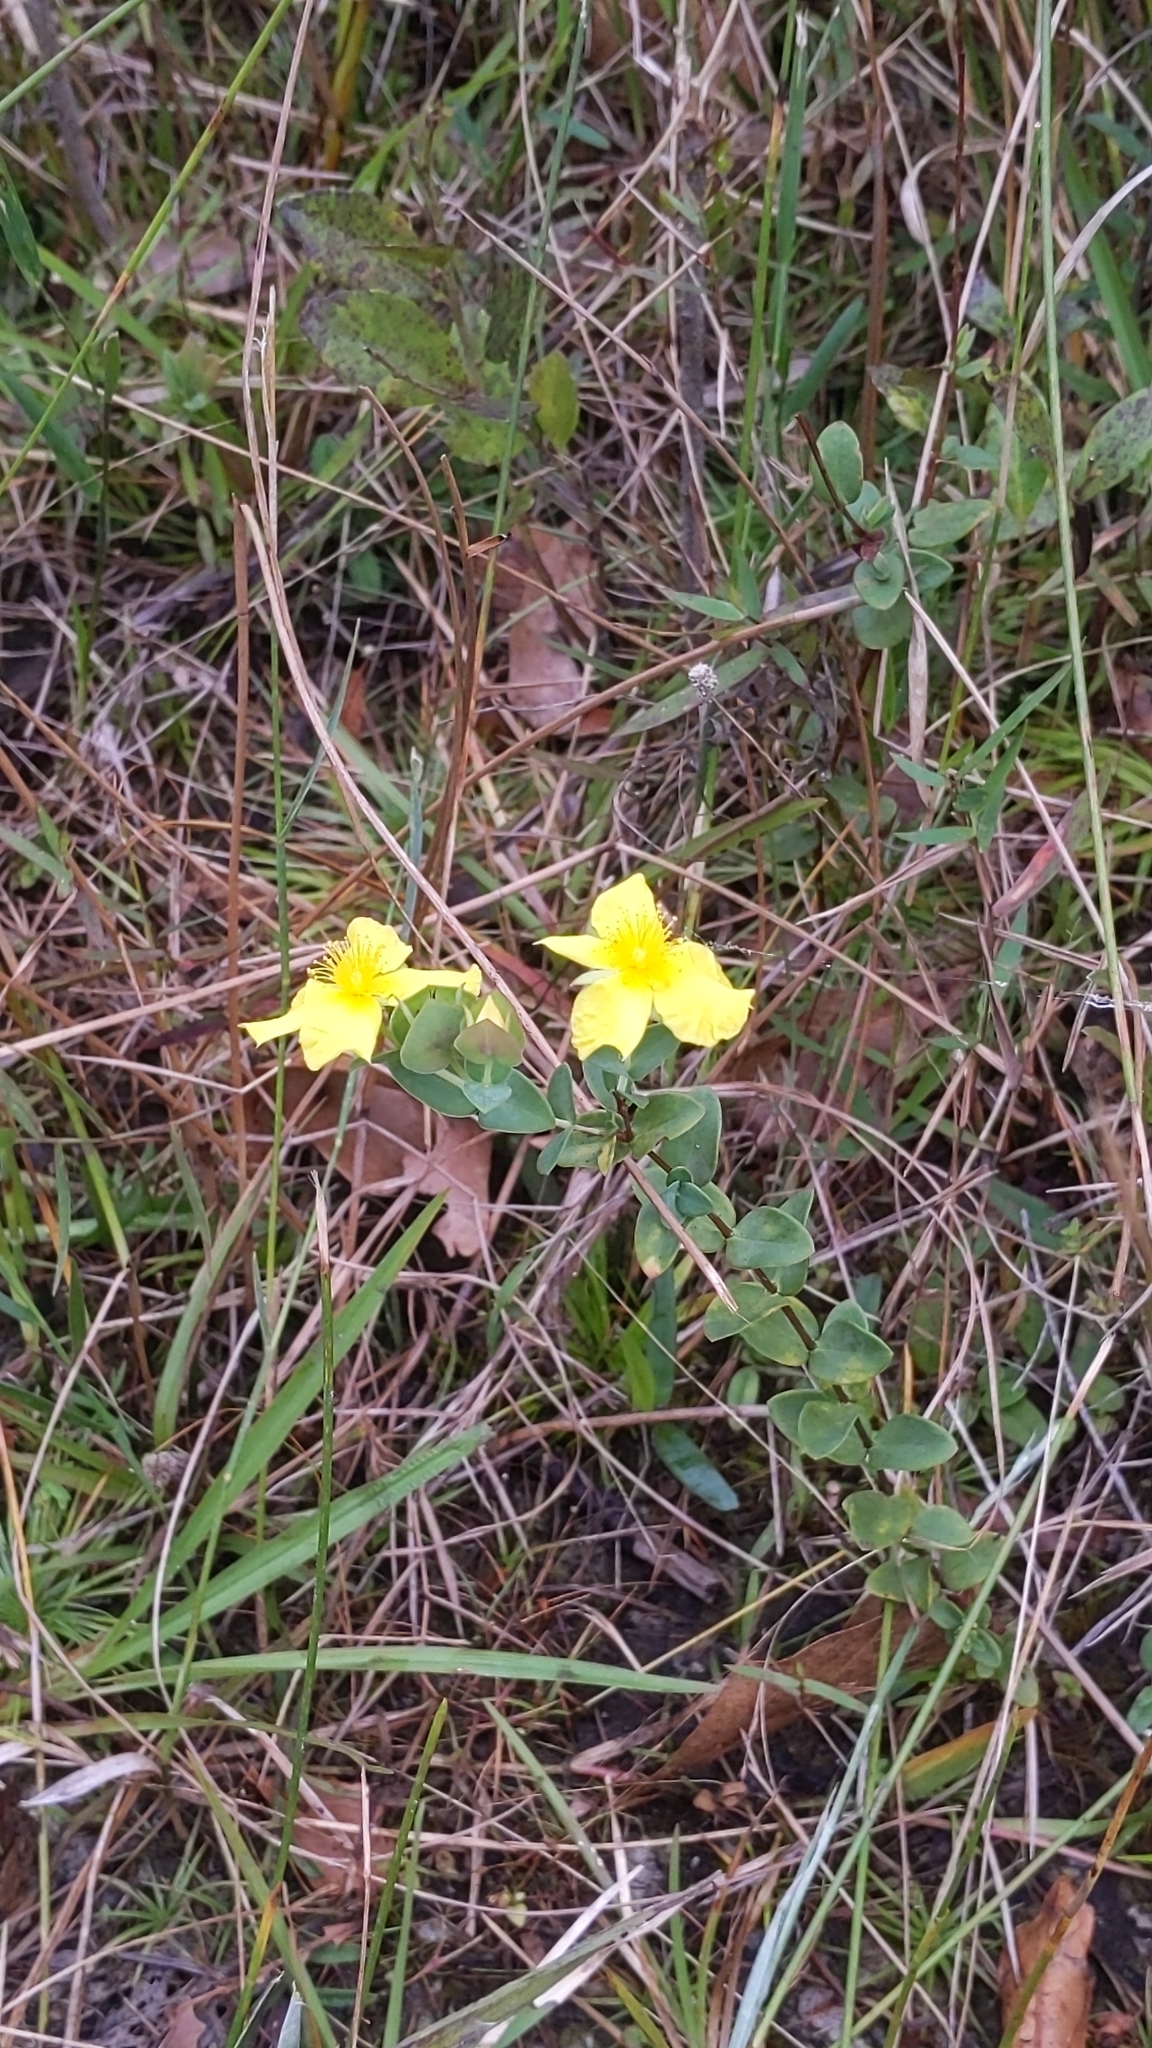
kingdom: Plantae
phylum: Tracheophyta
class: Magnoliopsida
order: Malpighiales
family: Hypericaceae
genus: Hypericum
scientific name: Hypericum tetrapetalum
